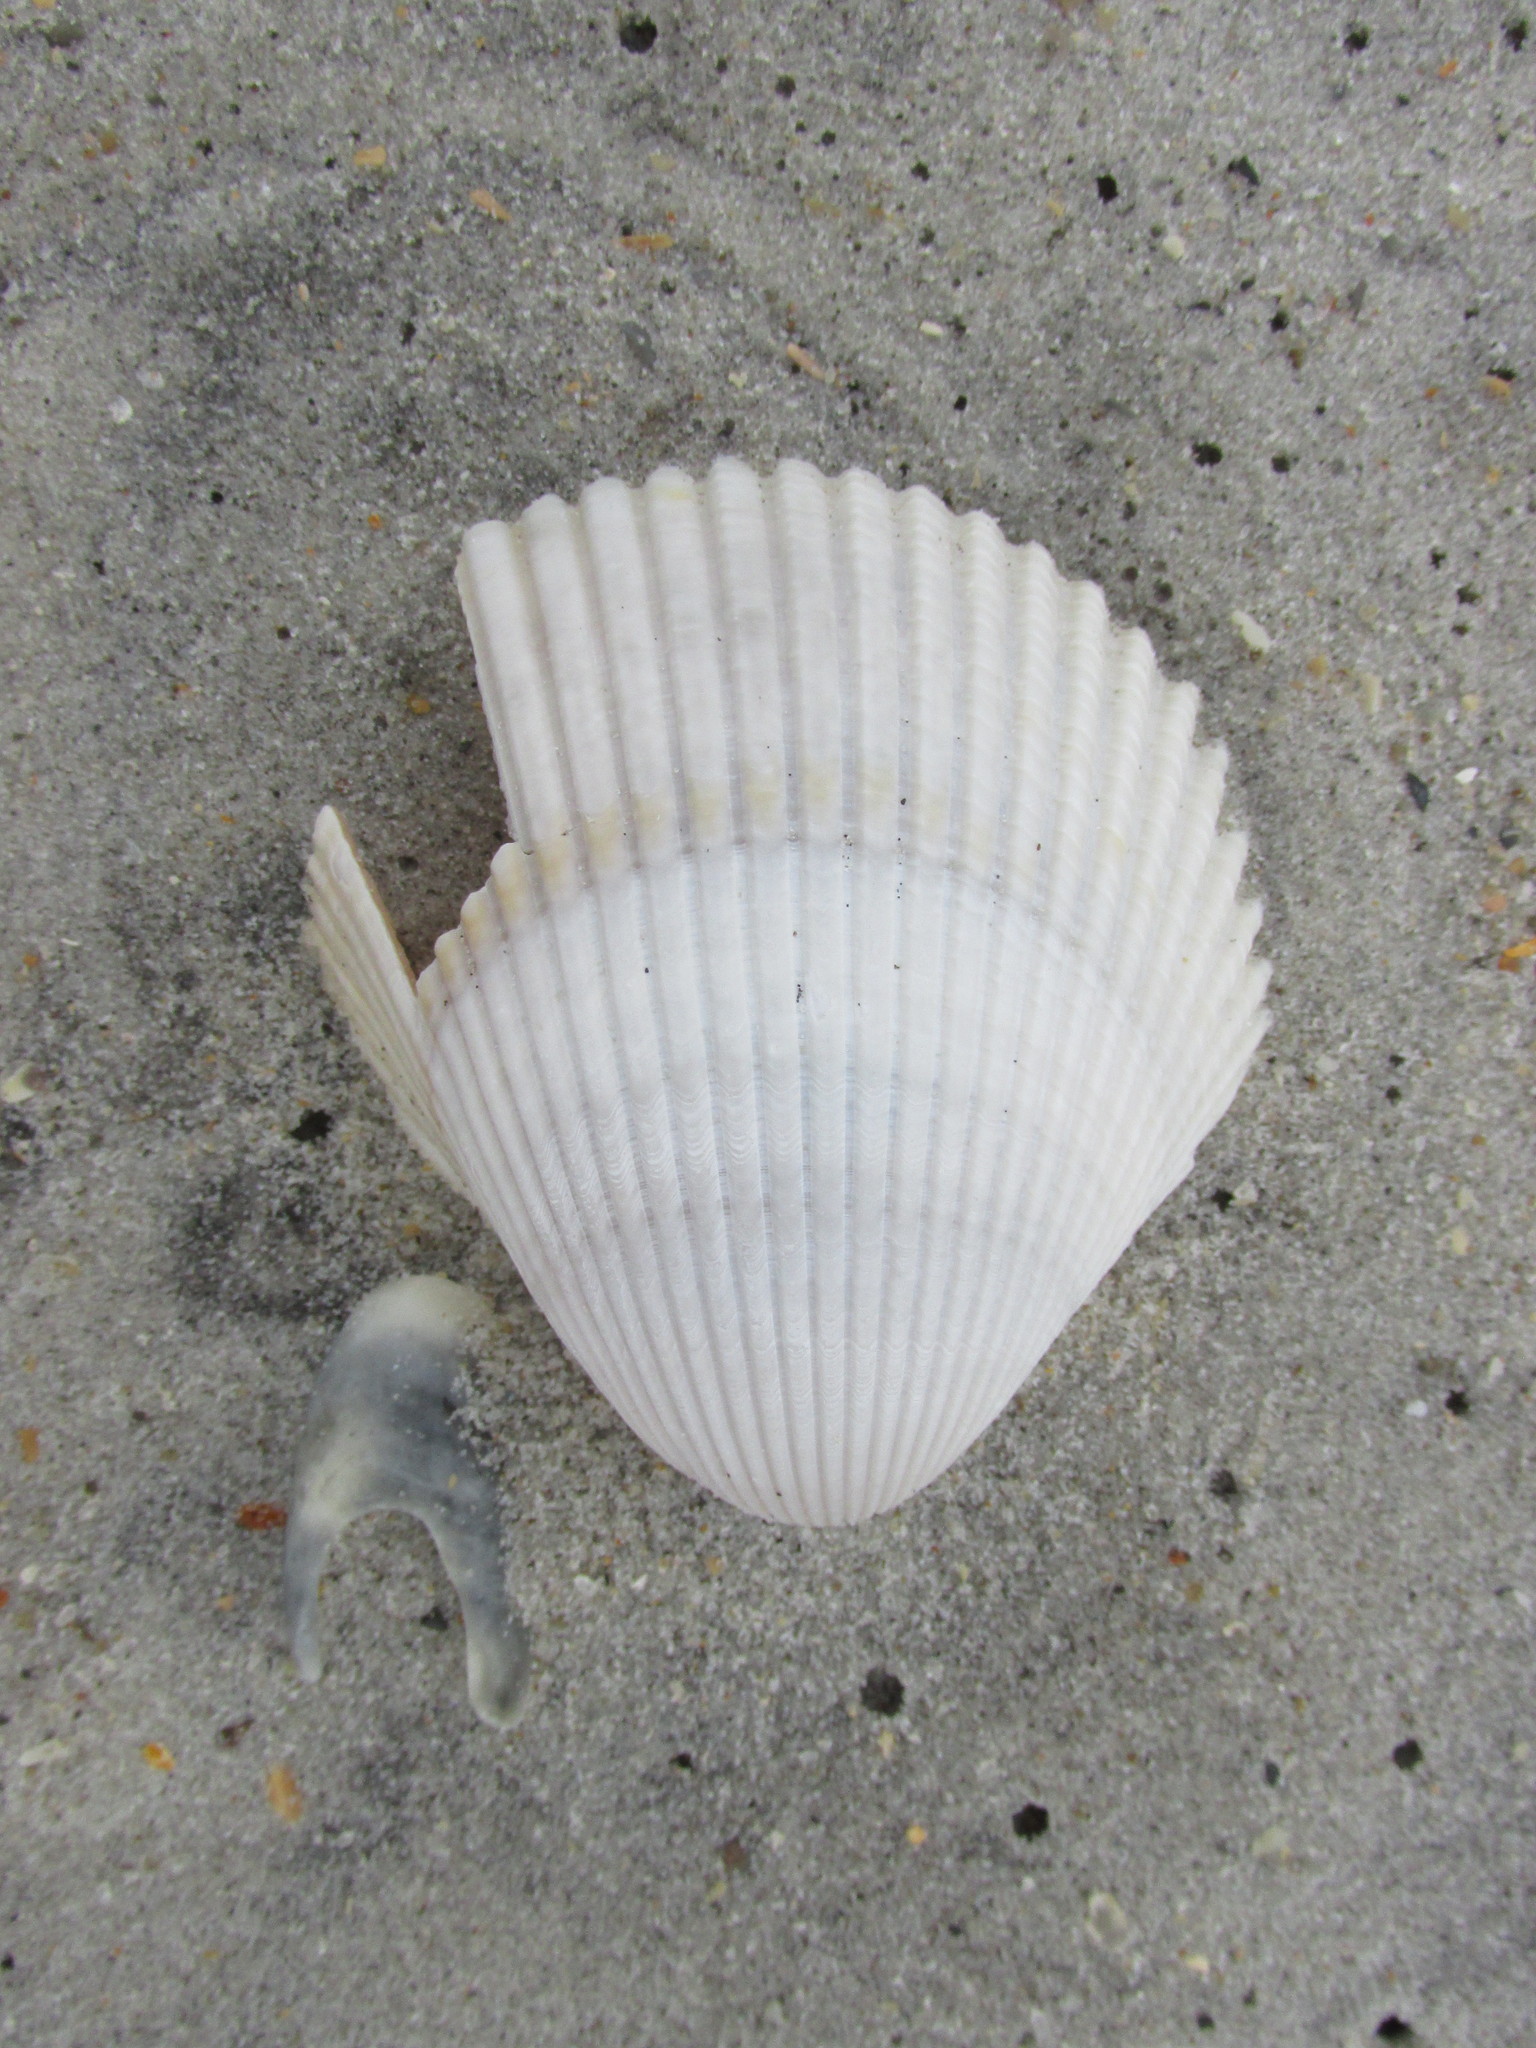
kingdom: Animalia
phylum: Mollusca
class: Bivalvia
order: Cardiida
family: Cardiidae
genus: Dinocardium
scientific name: Dinocardium robustum
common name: Atlantic giant cockle
